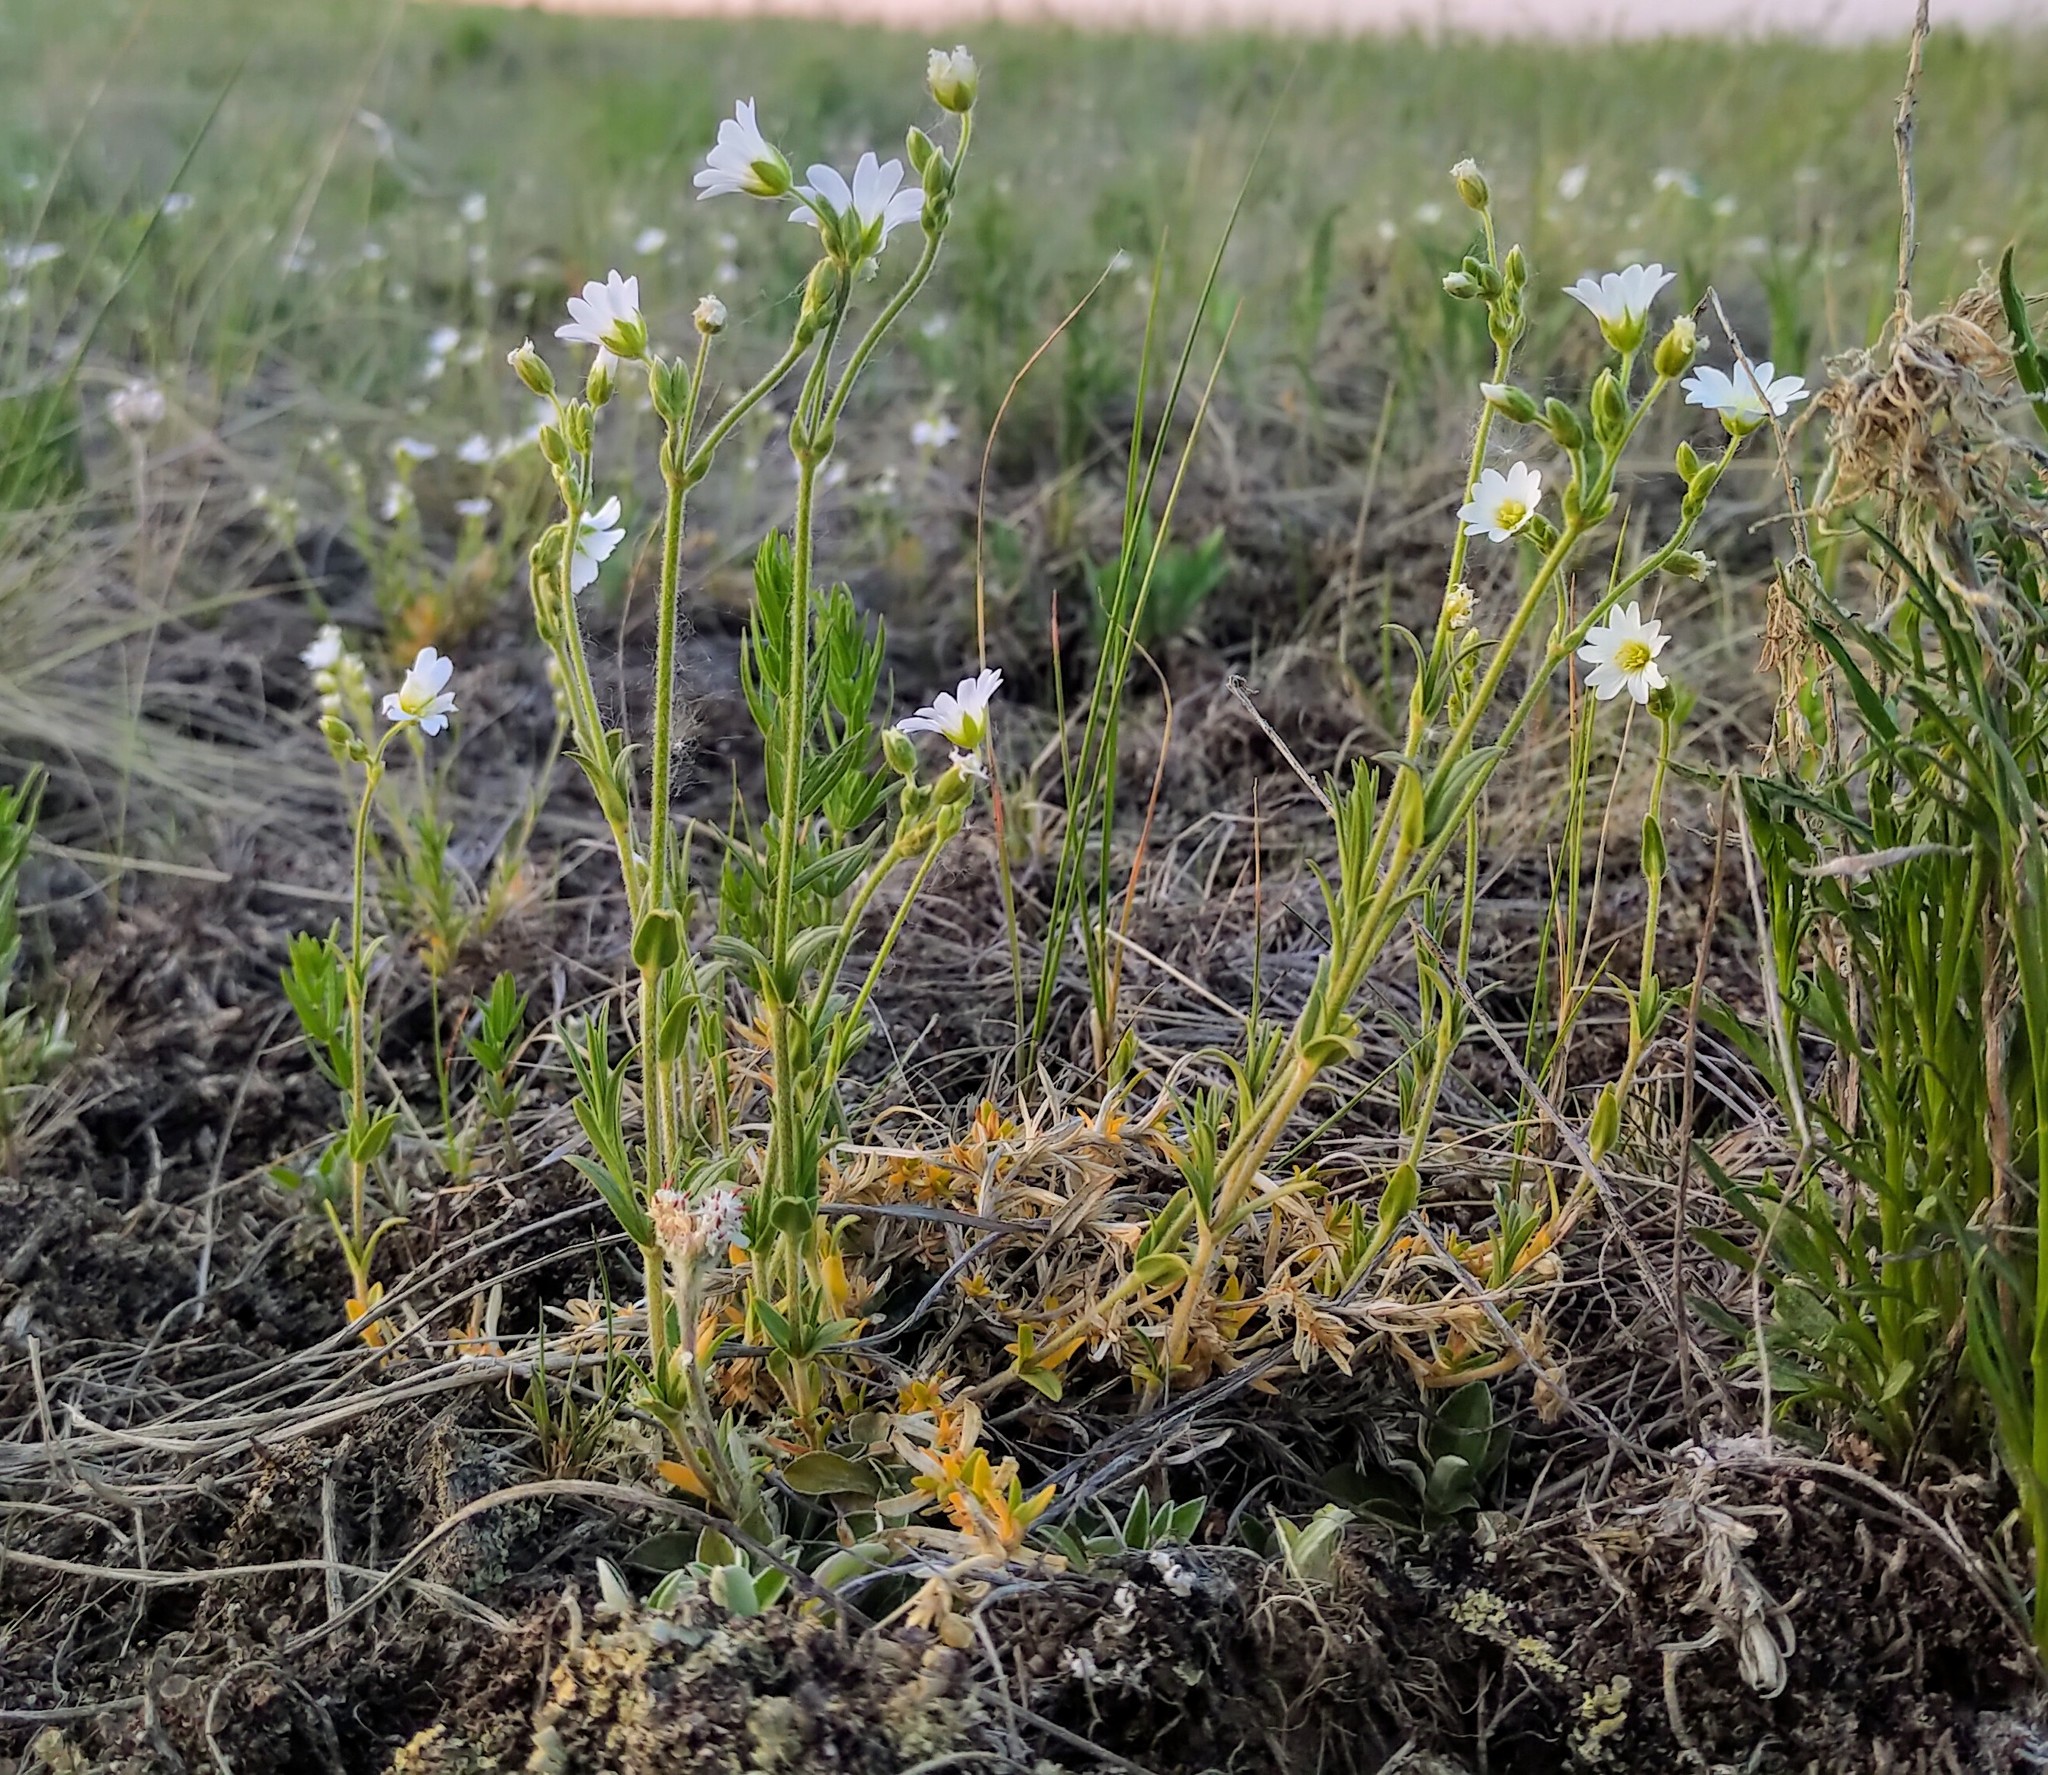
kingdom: Plantae
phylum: Tracheophyta
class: Magnoliopsida
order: Caryophyllales
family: Caryophyllaceae
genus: Cerastium
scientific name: Cerastium arvense
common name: Field mouse-ear
